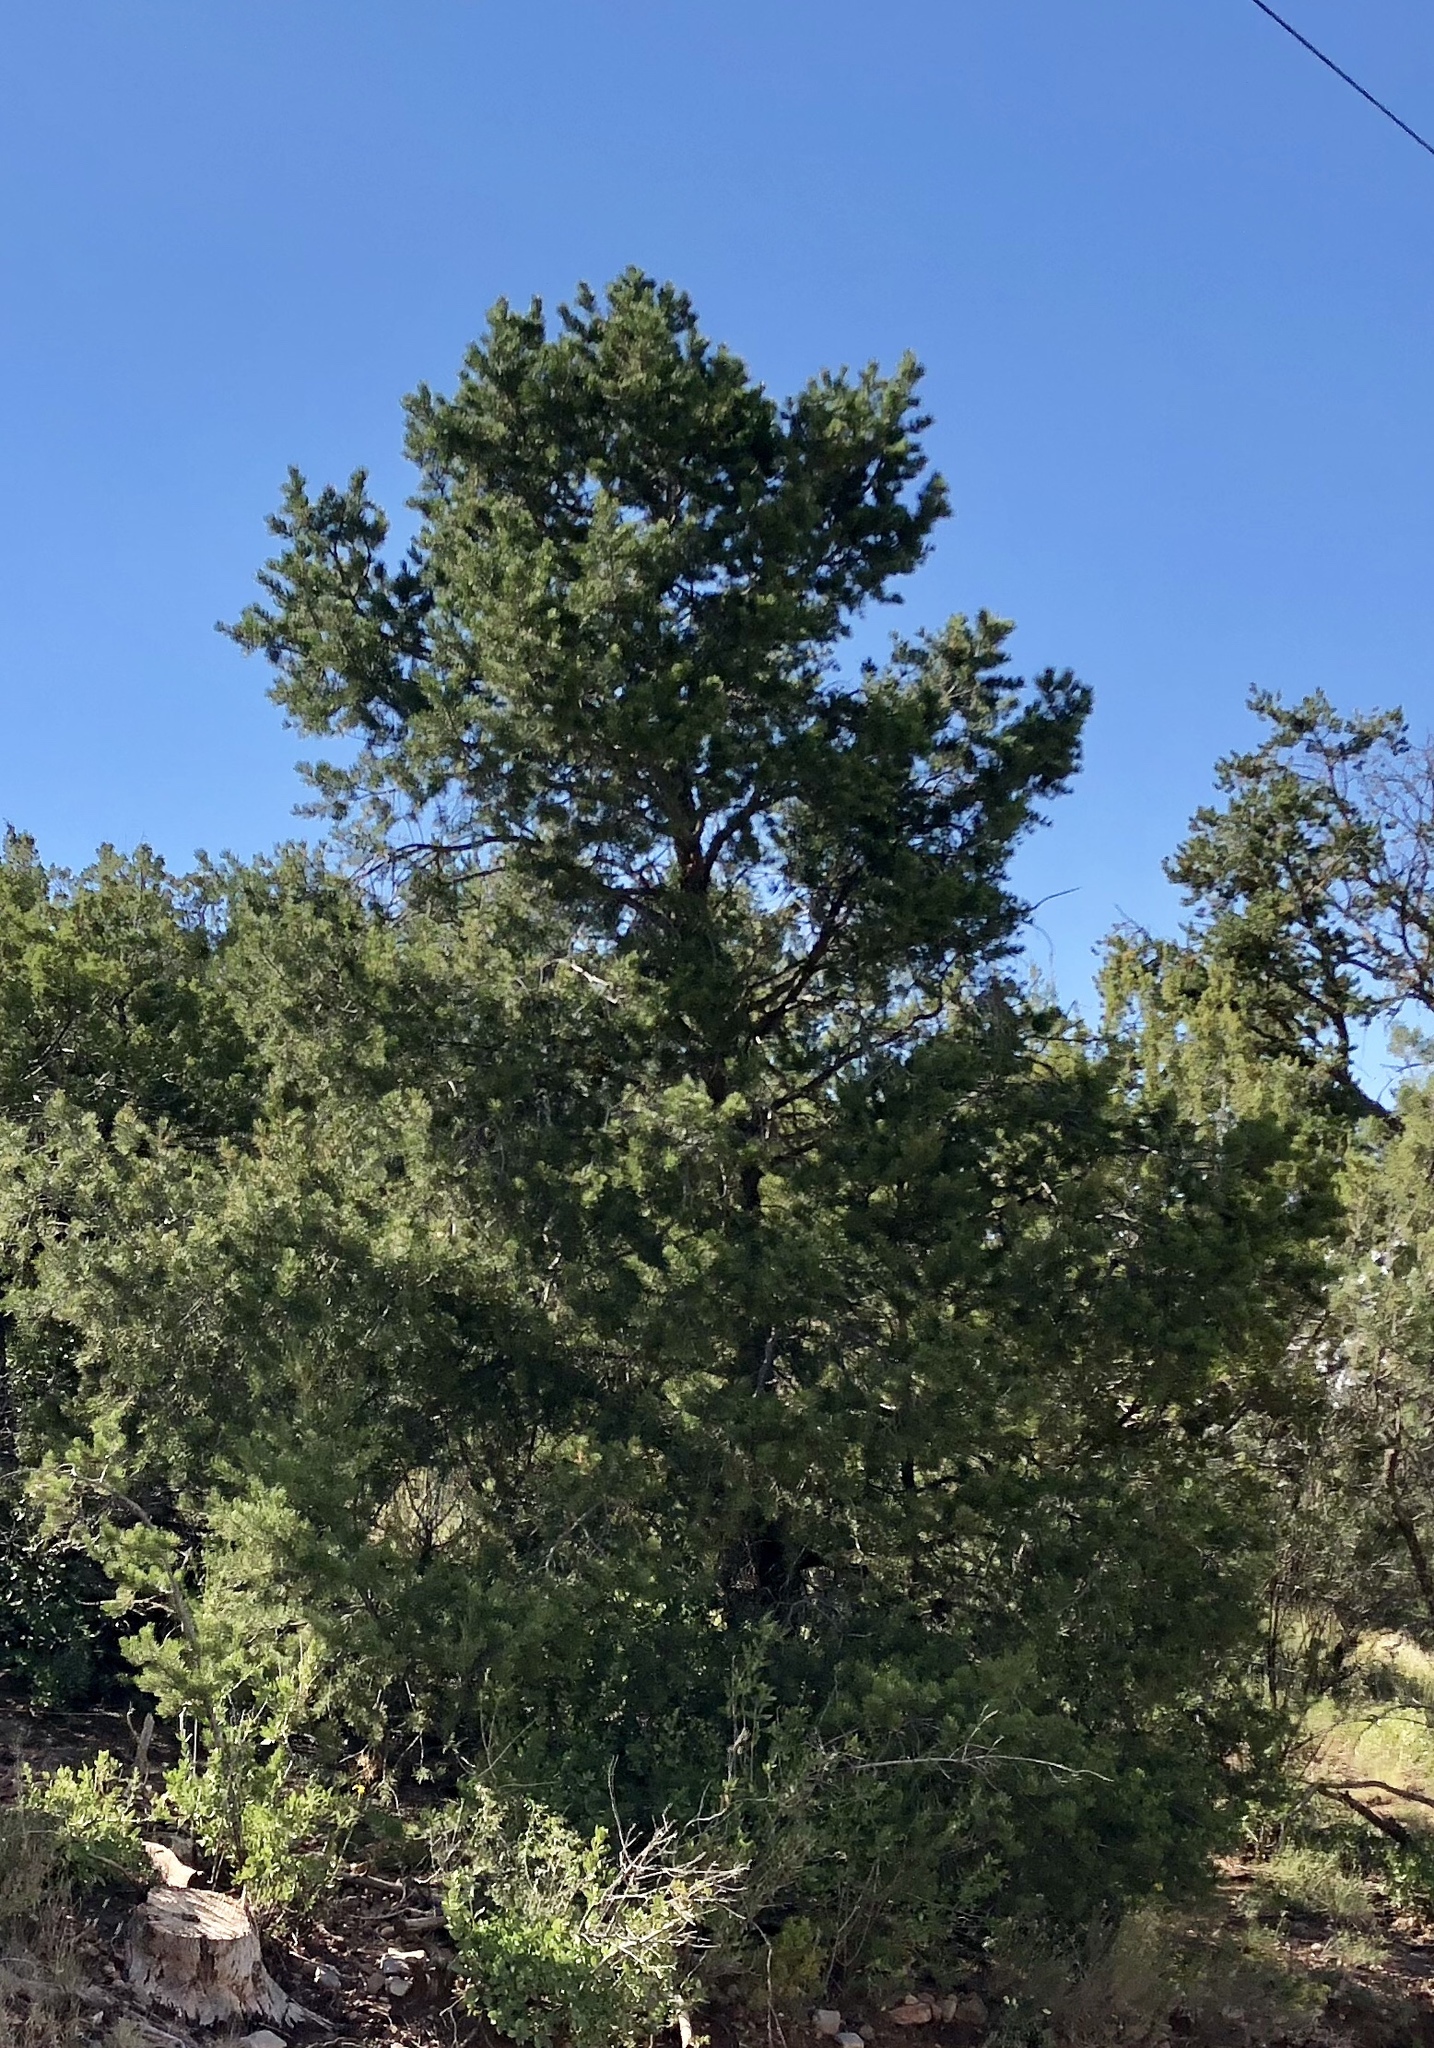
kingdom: Plantae
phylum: Tracheophyta
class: Pinopsida
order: Pinales
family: Pinaceae
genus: Pinus
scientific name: Pinus edulis
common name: Colorado pinyon
